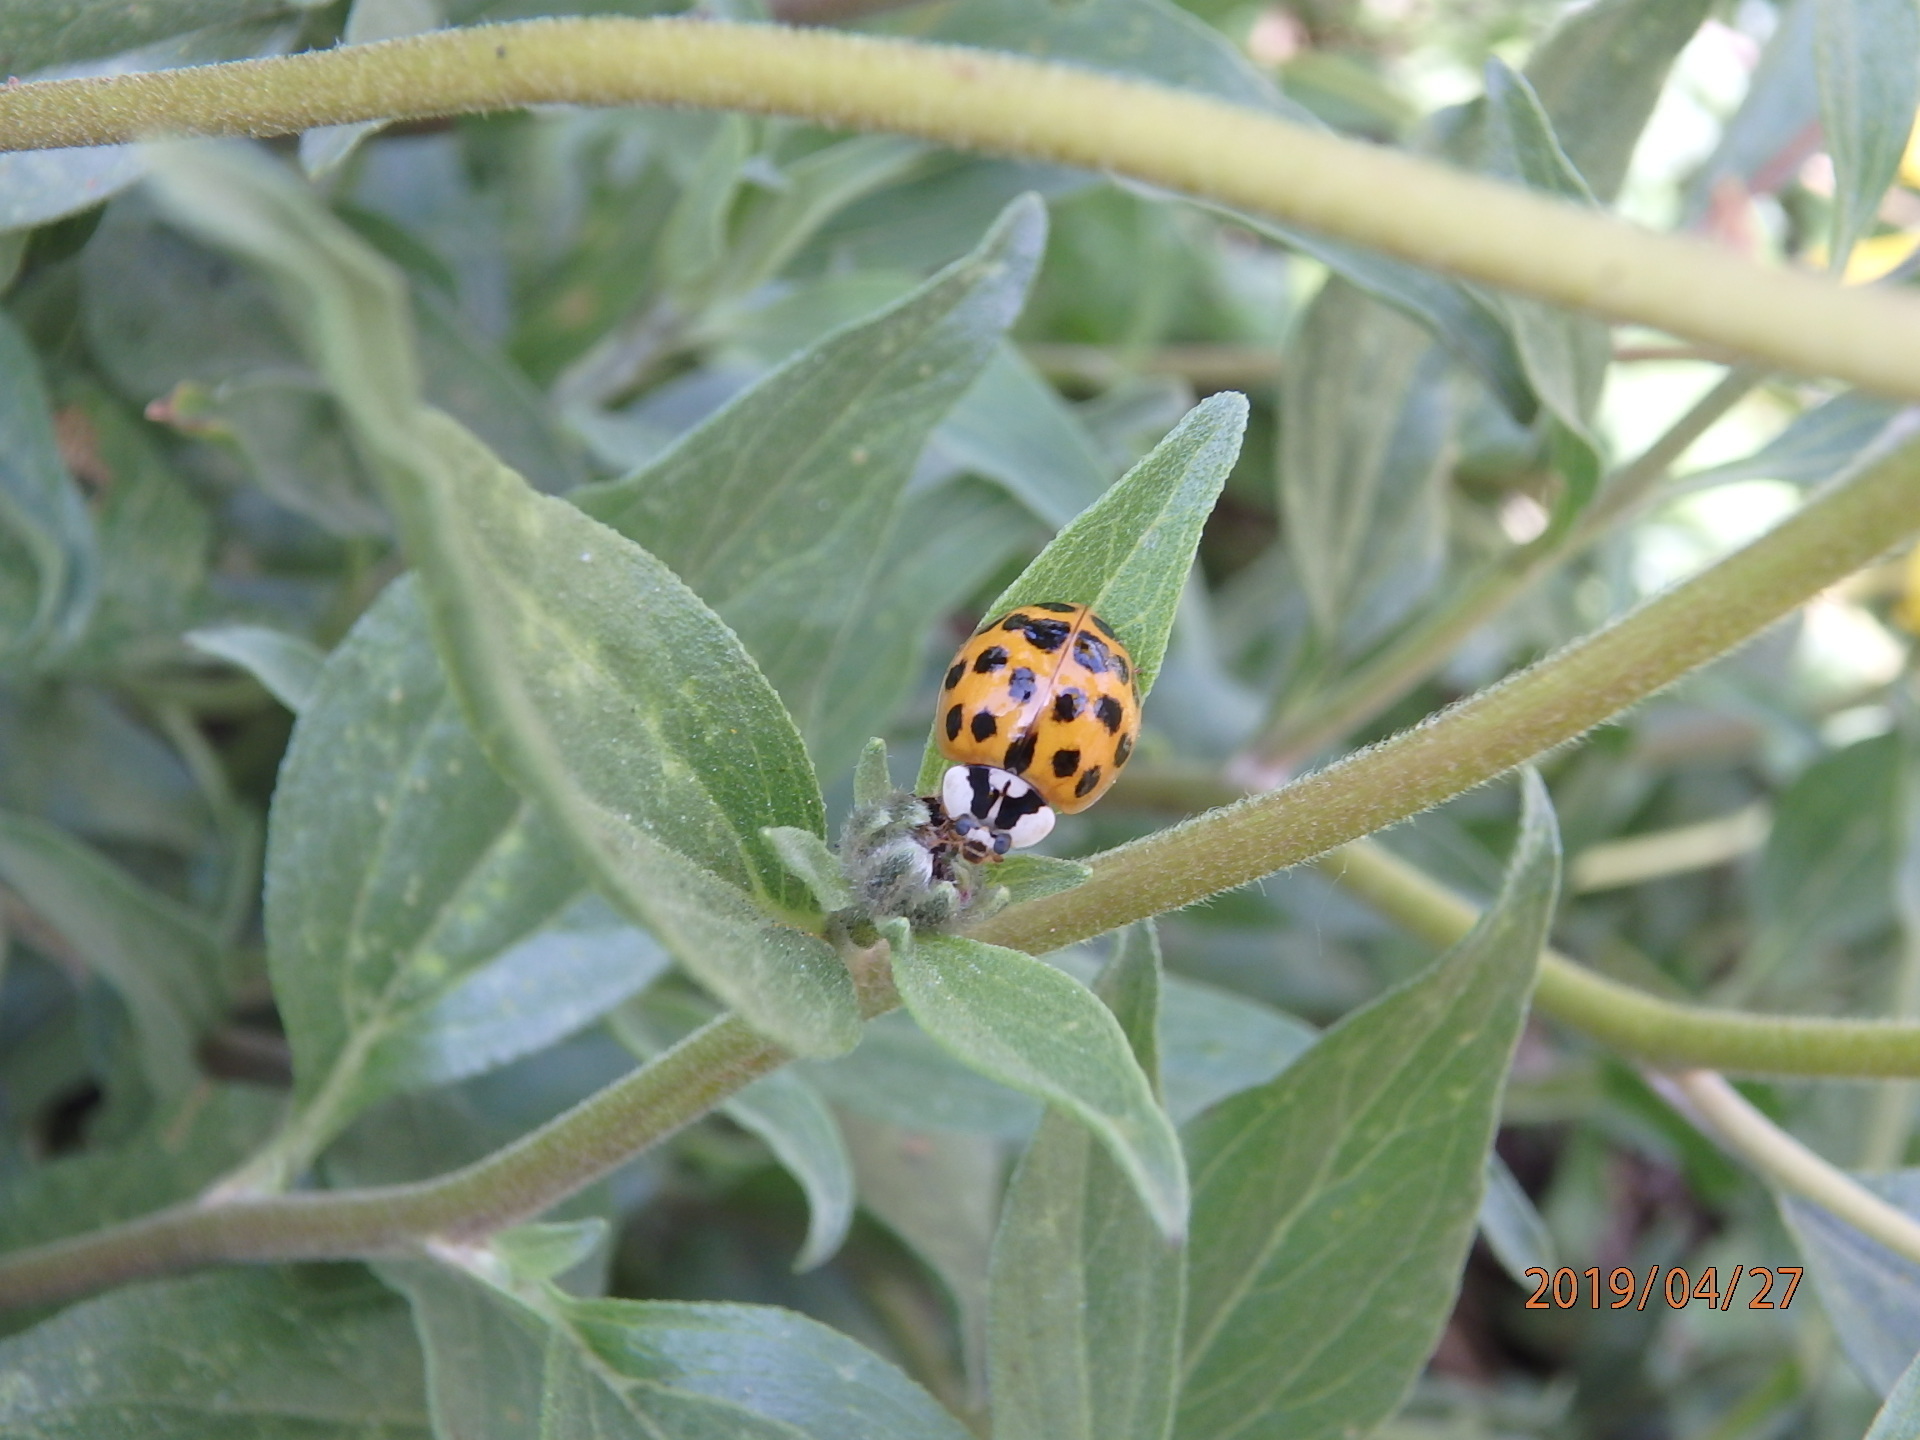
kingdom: Animalia
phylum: Arthropoda
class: Insecta
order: Coleoptera
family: Coccinellidae
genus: Harmonia
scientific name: Harmonia axyridis
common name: Harlequin ladybird
